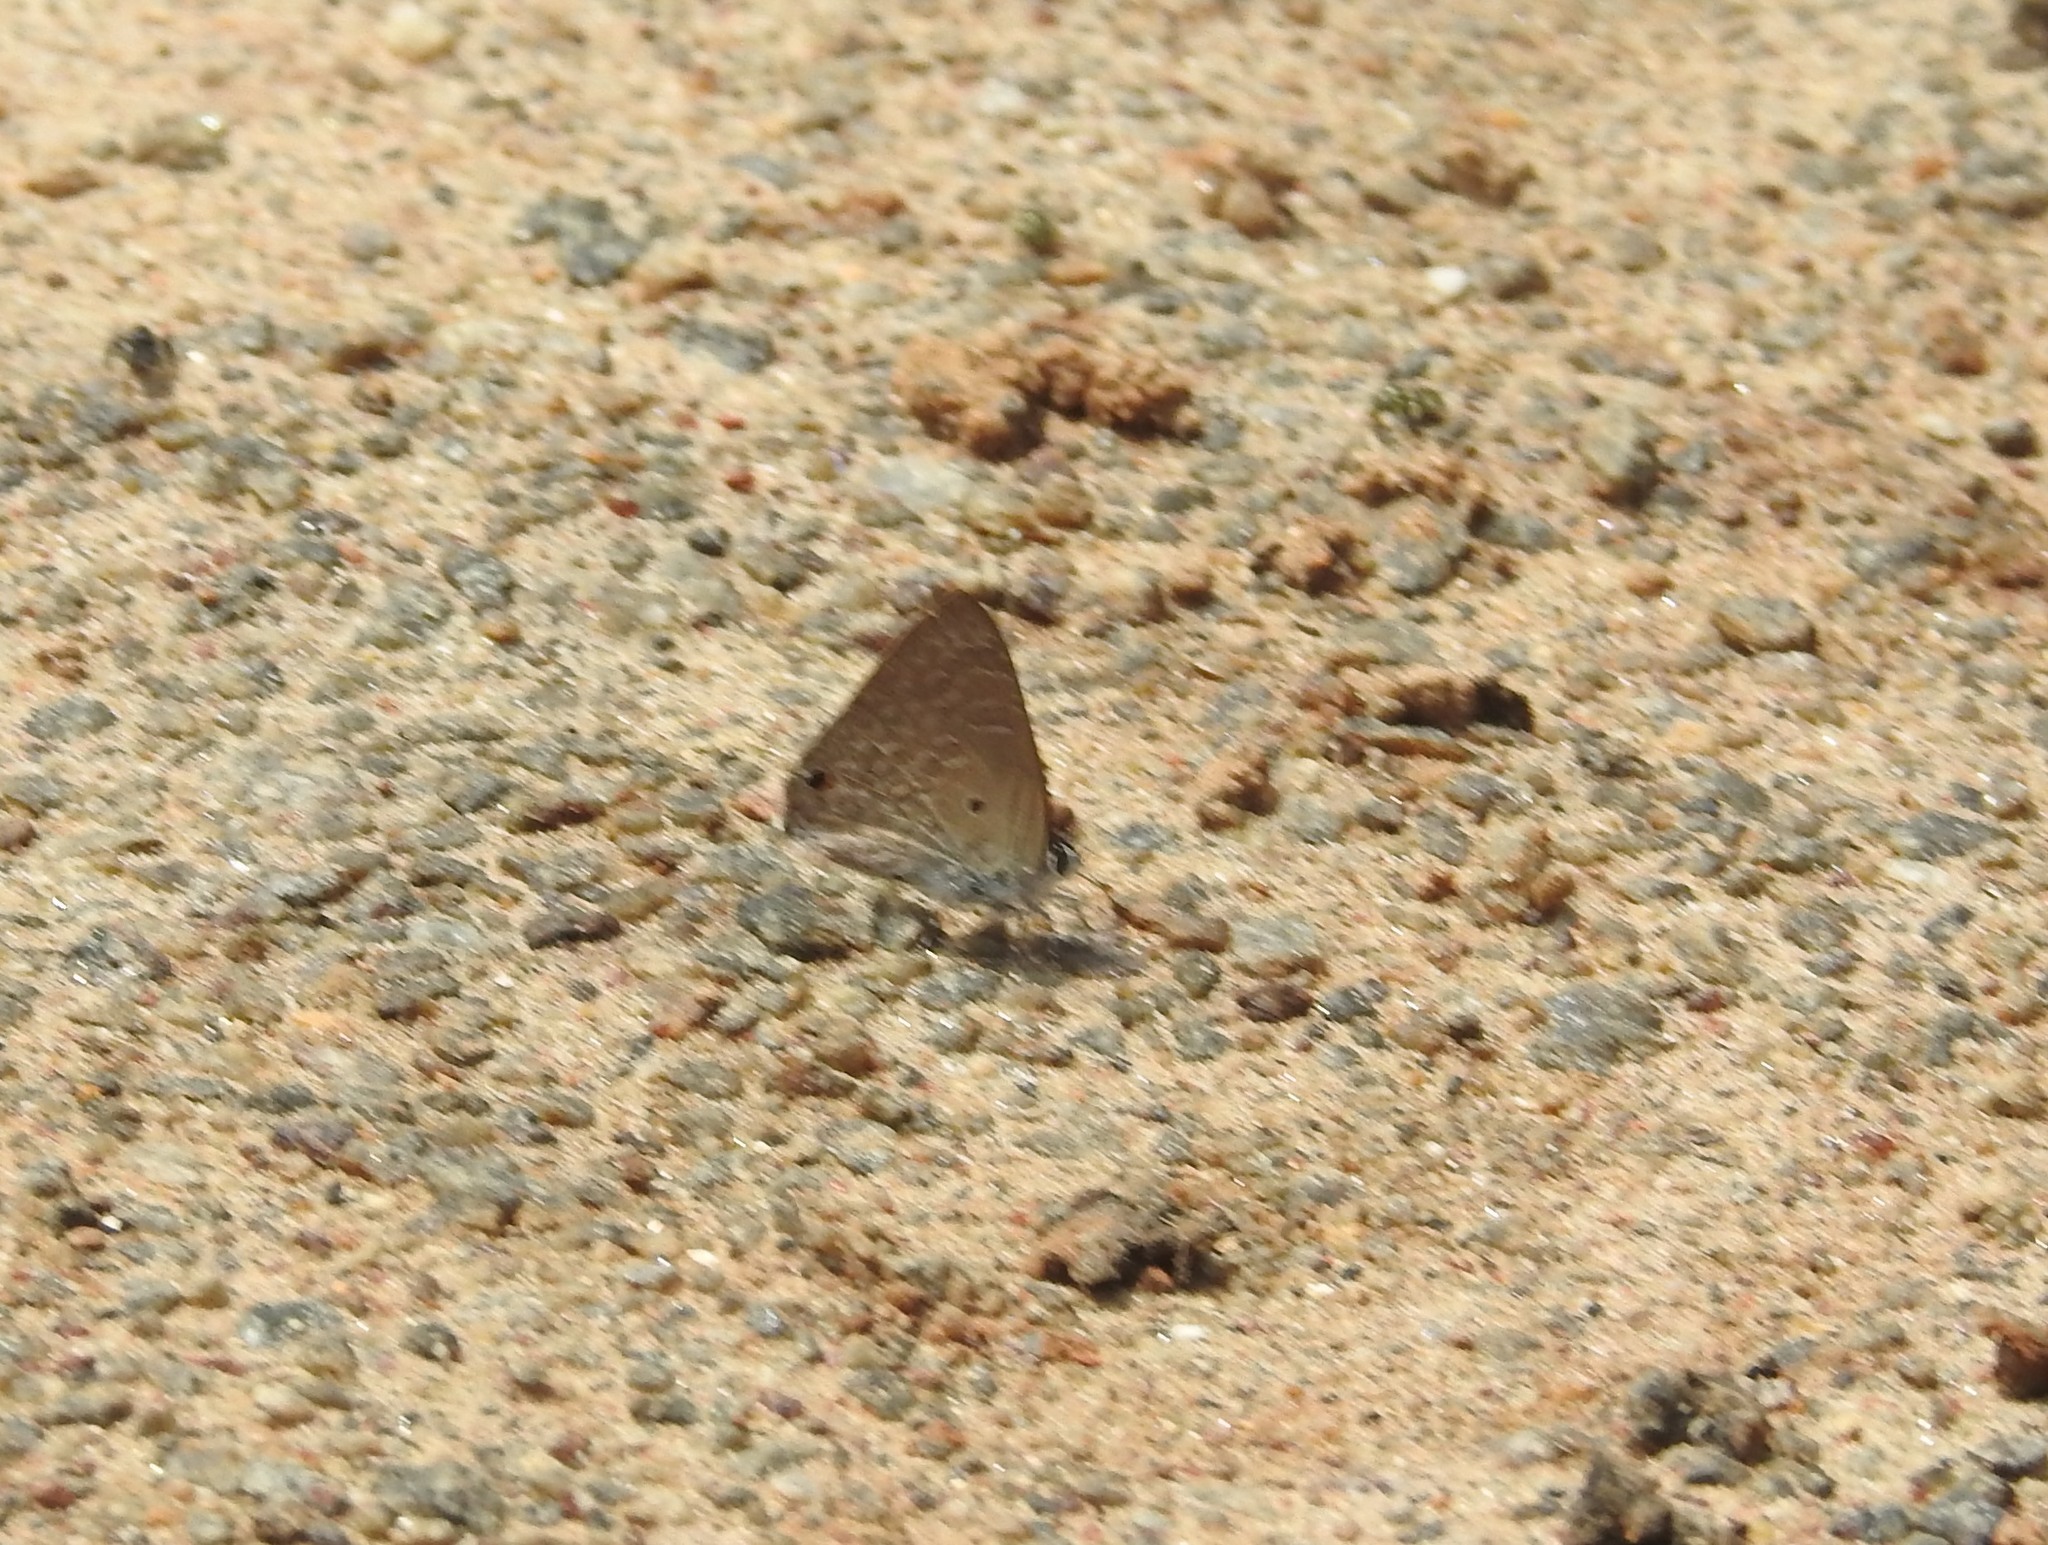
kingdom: Animalia
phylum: Arthropoda
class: Insecta
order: Lepidoptera
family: Lycaenidae
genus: Anthene
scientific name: Anthene lycaenina
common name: Pointed ciliate blue
